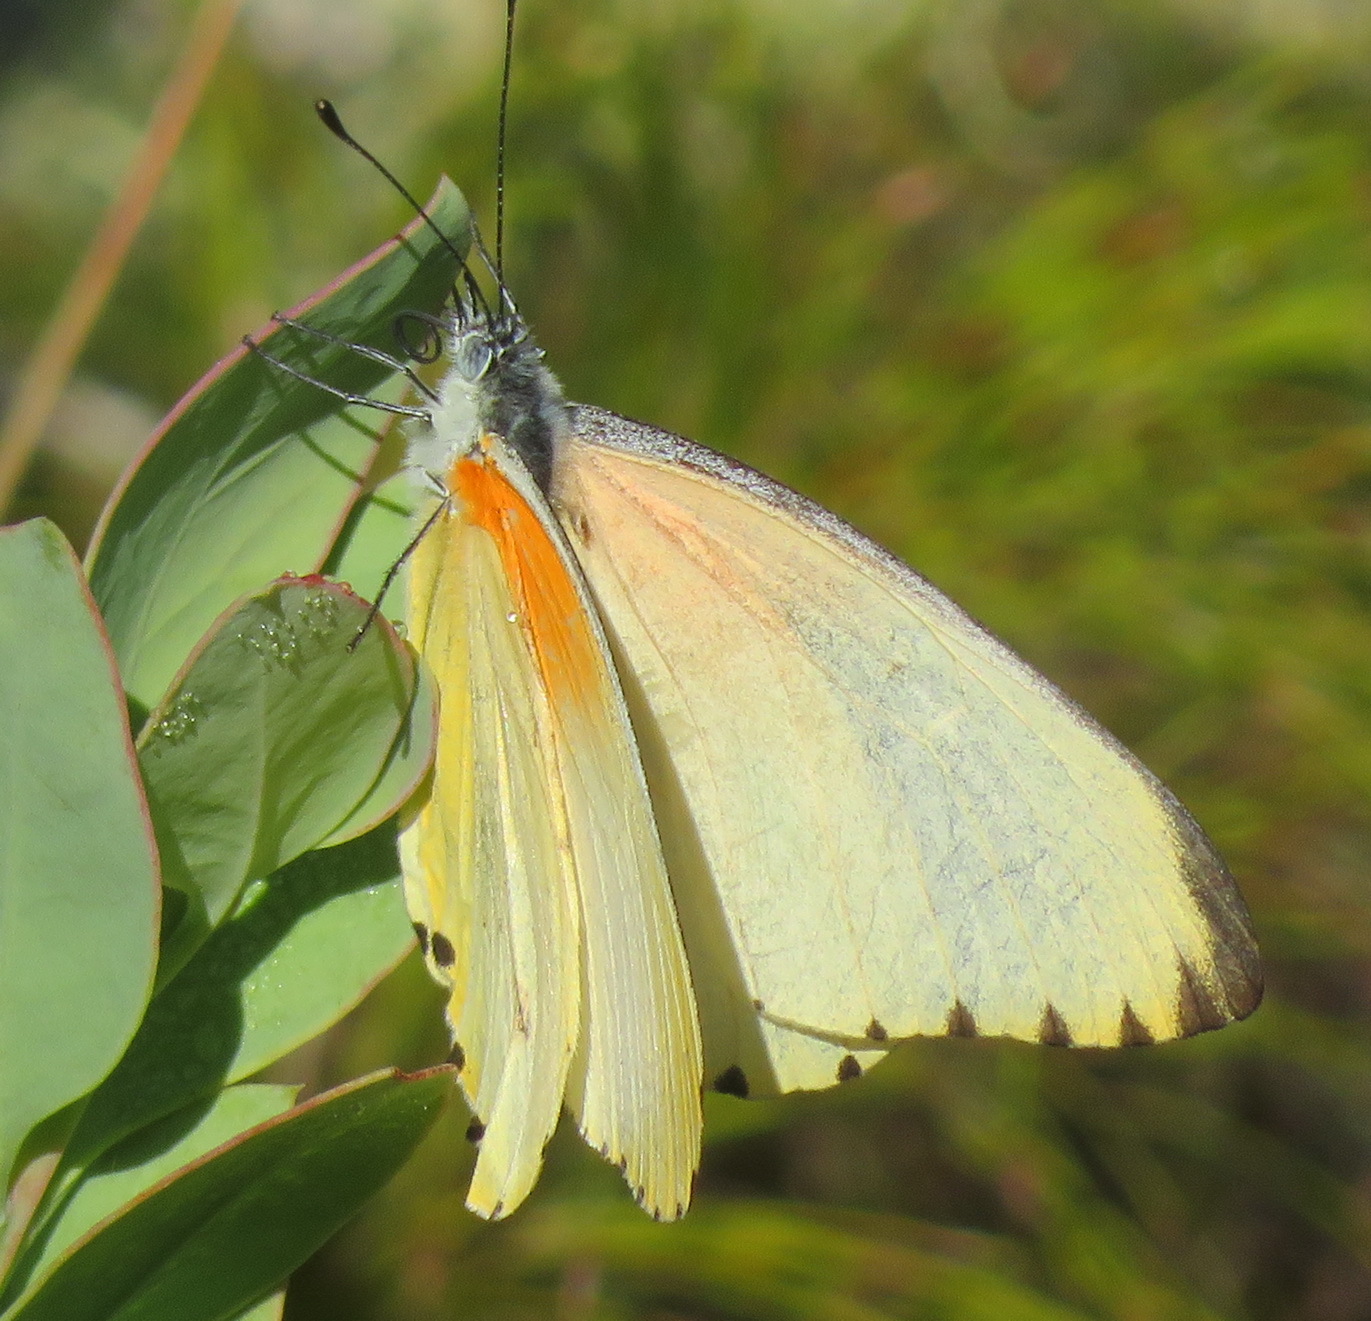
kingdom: Animalia
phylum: Arthropoda
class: Insecta
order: Lepidoptera
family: Pieridae
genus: Mylothris
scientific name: Mylothris agathina
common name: Eastern dotted border
